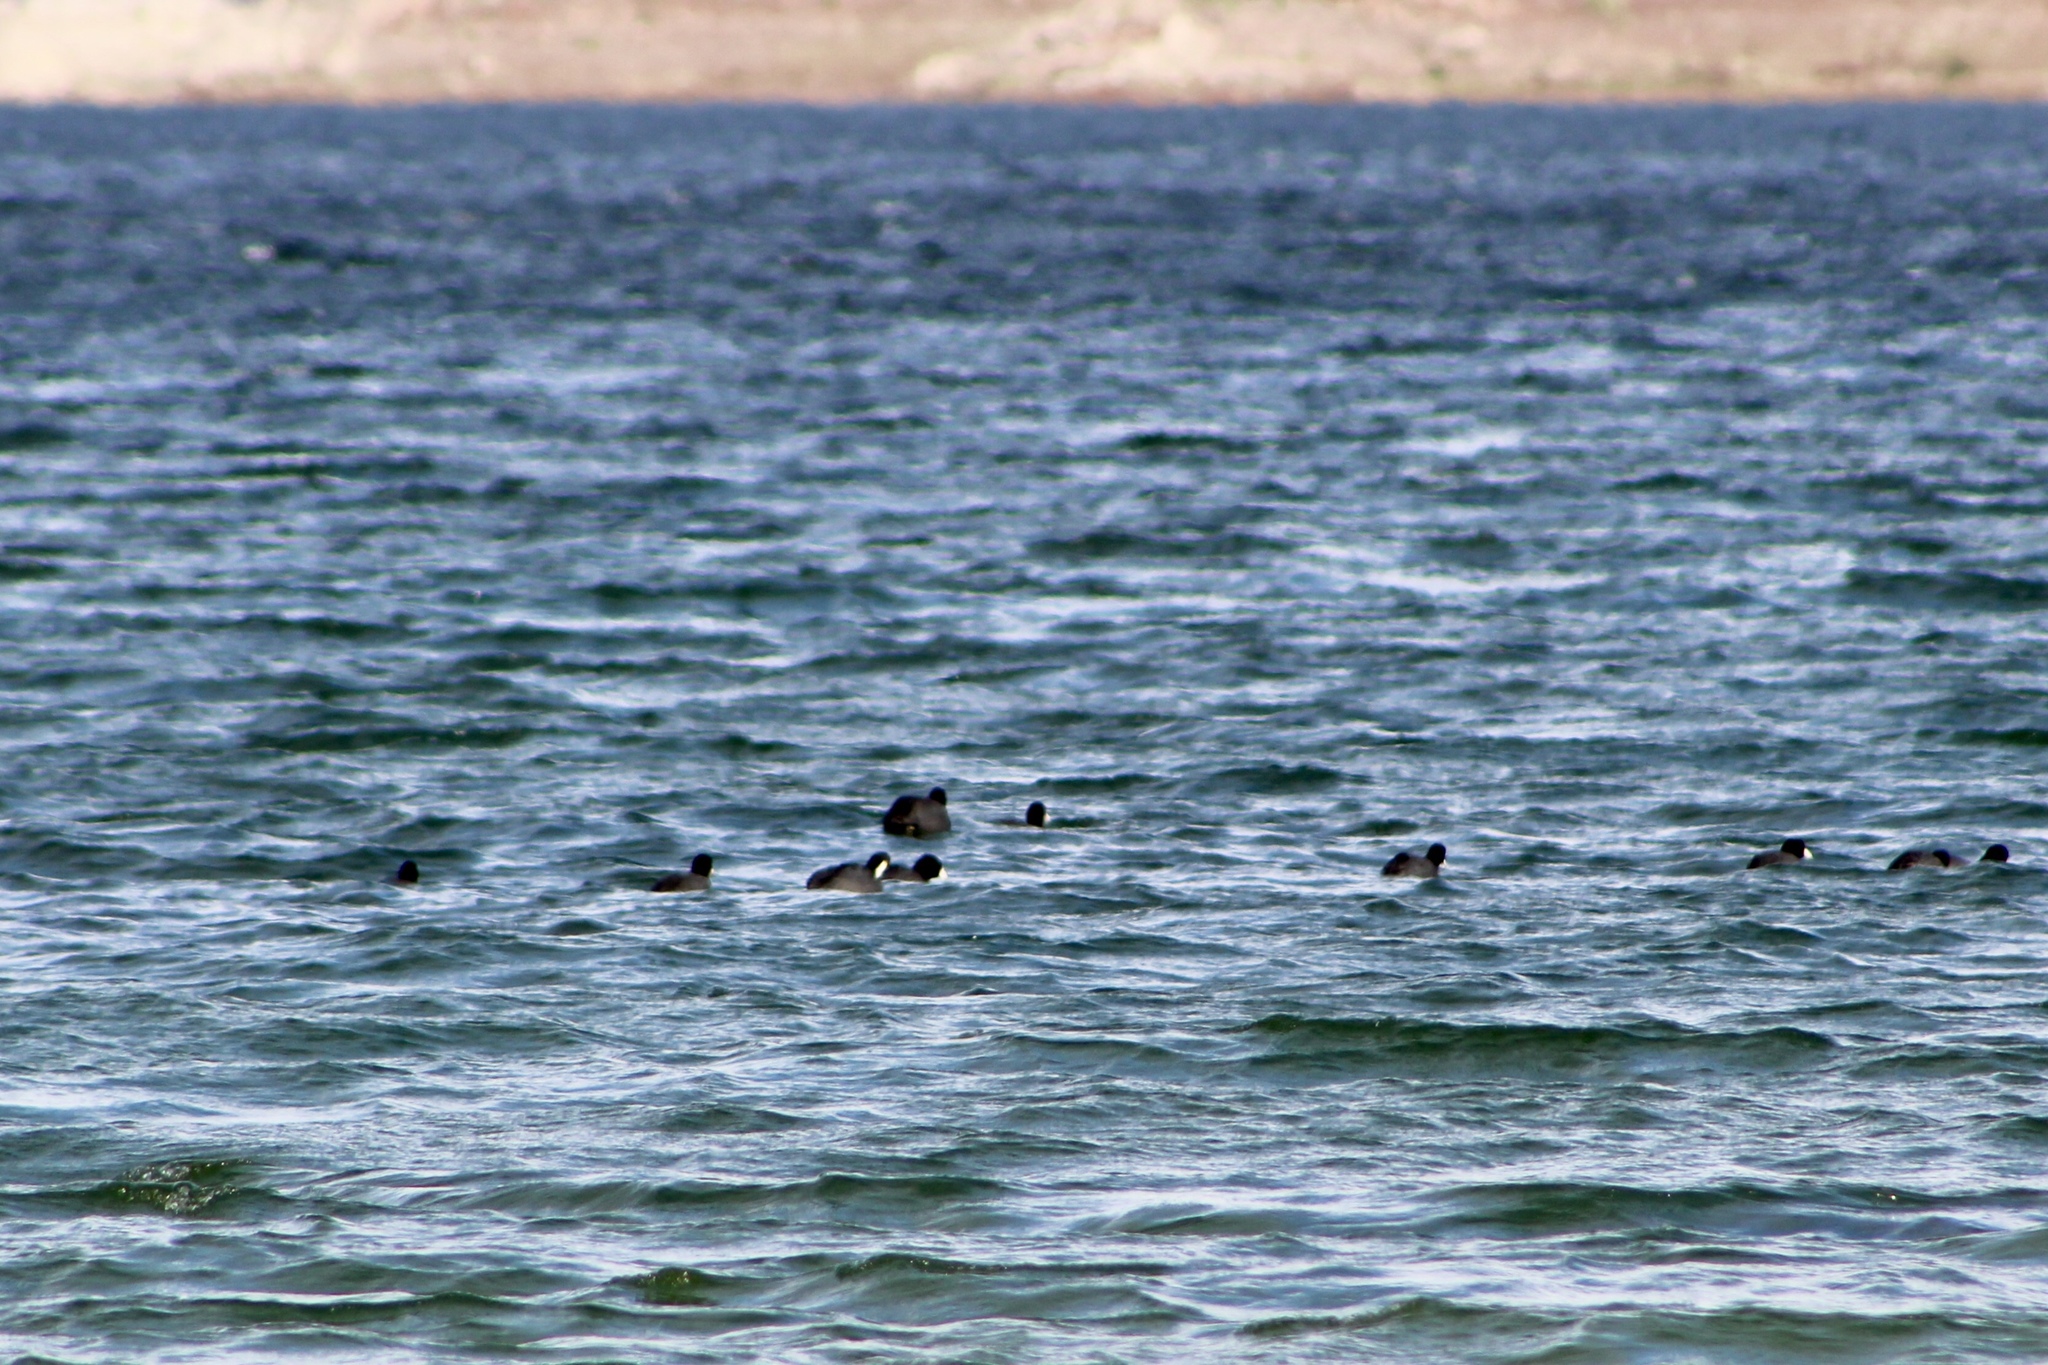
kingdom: Animalia
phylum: Chordata
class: Aves
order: Gruiformes
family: Rallidae
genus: Fulica
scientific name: Fulica americana
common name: American coot
